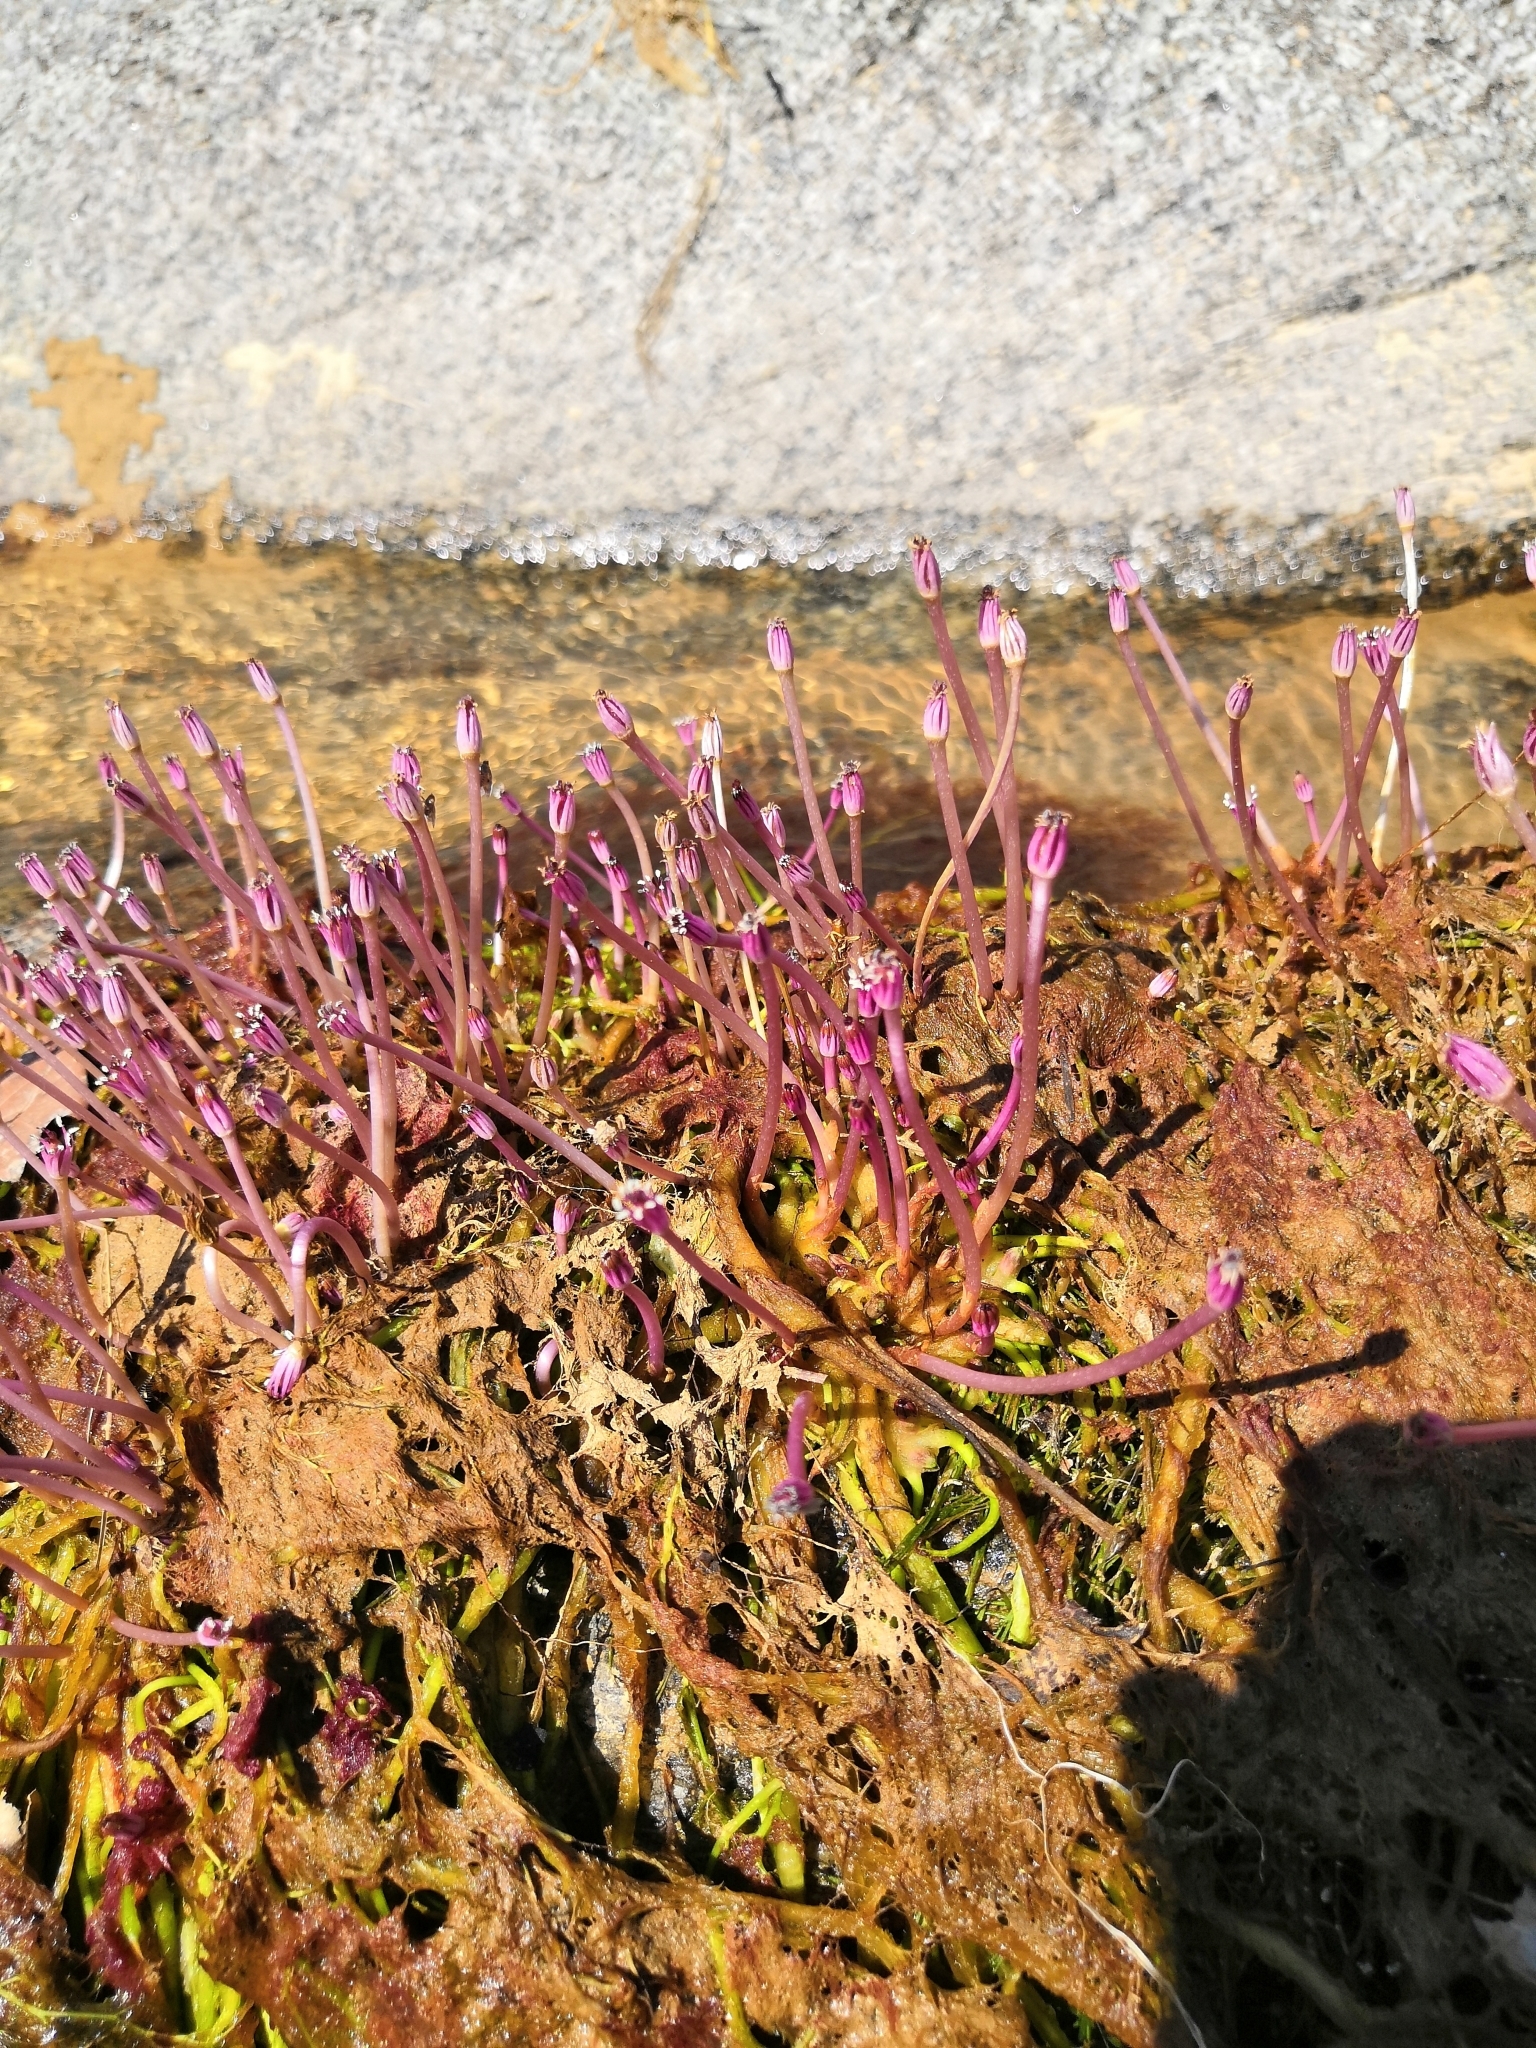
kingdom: Plantae
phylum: Tracheophyta
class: Magnoliopsida
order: Malpighiales
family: Podostemaceae
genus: Marathrum
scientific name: Marathrum plumosum
